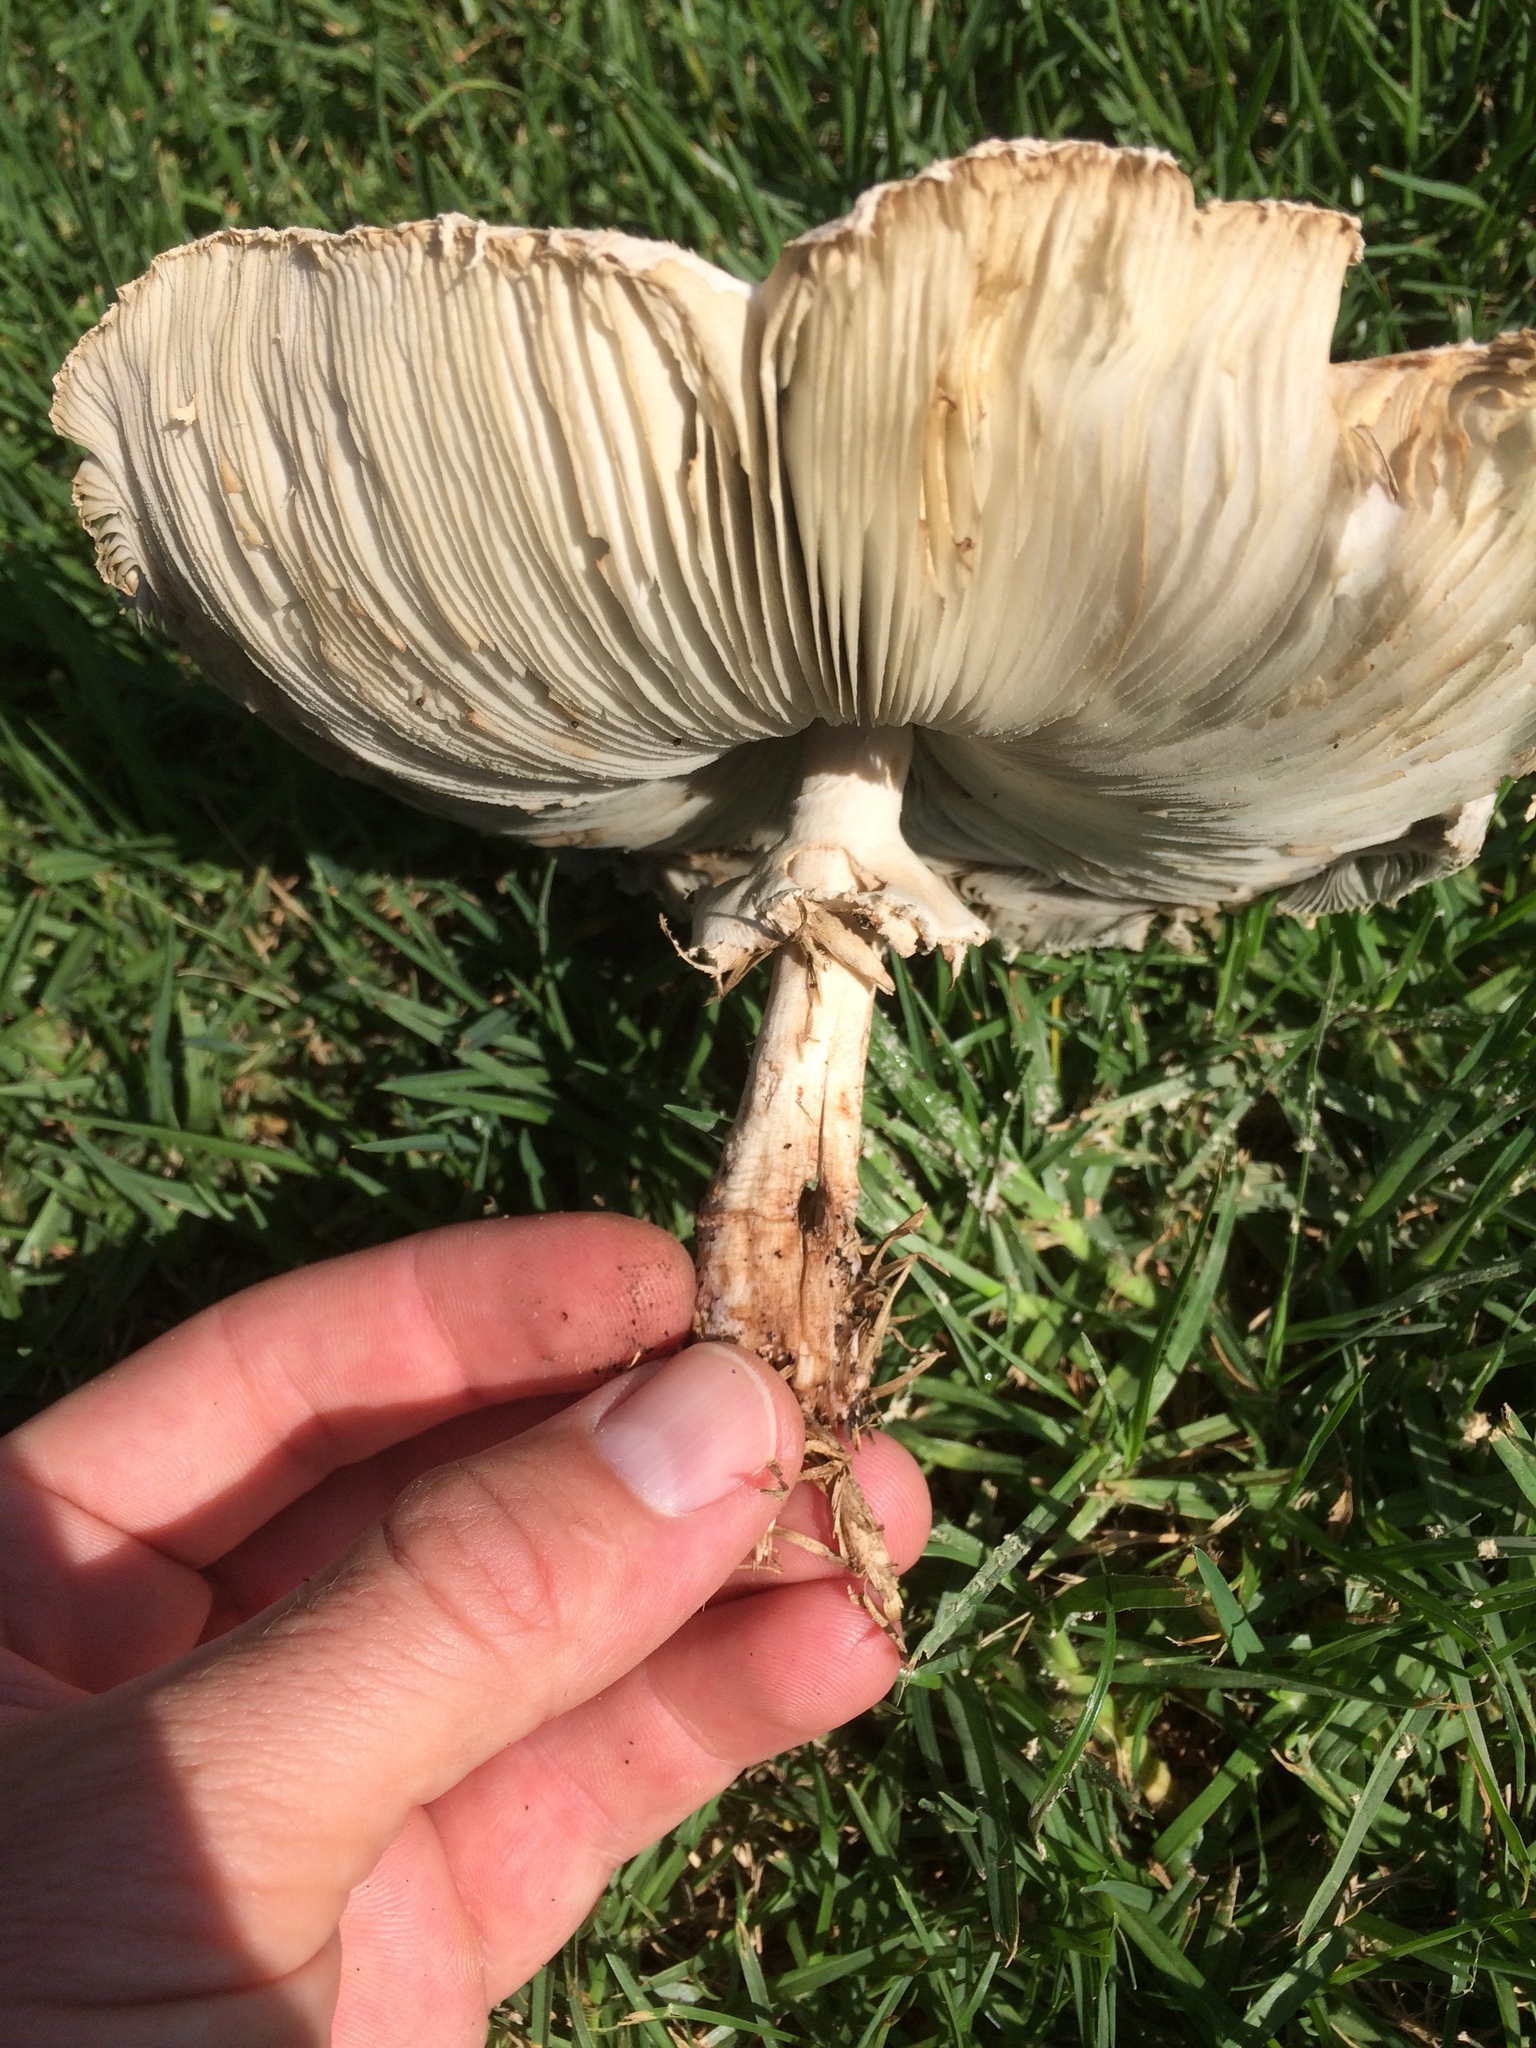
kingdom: Fungi
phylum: Basidiomycota
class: Agaricomycetes
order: Agaricales
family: Agaricaceae
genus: Chlorophyllum
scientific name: Chlorophyllum molybdites
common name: False parasol
